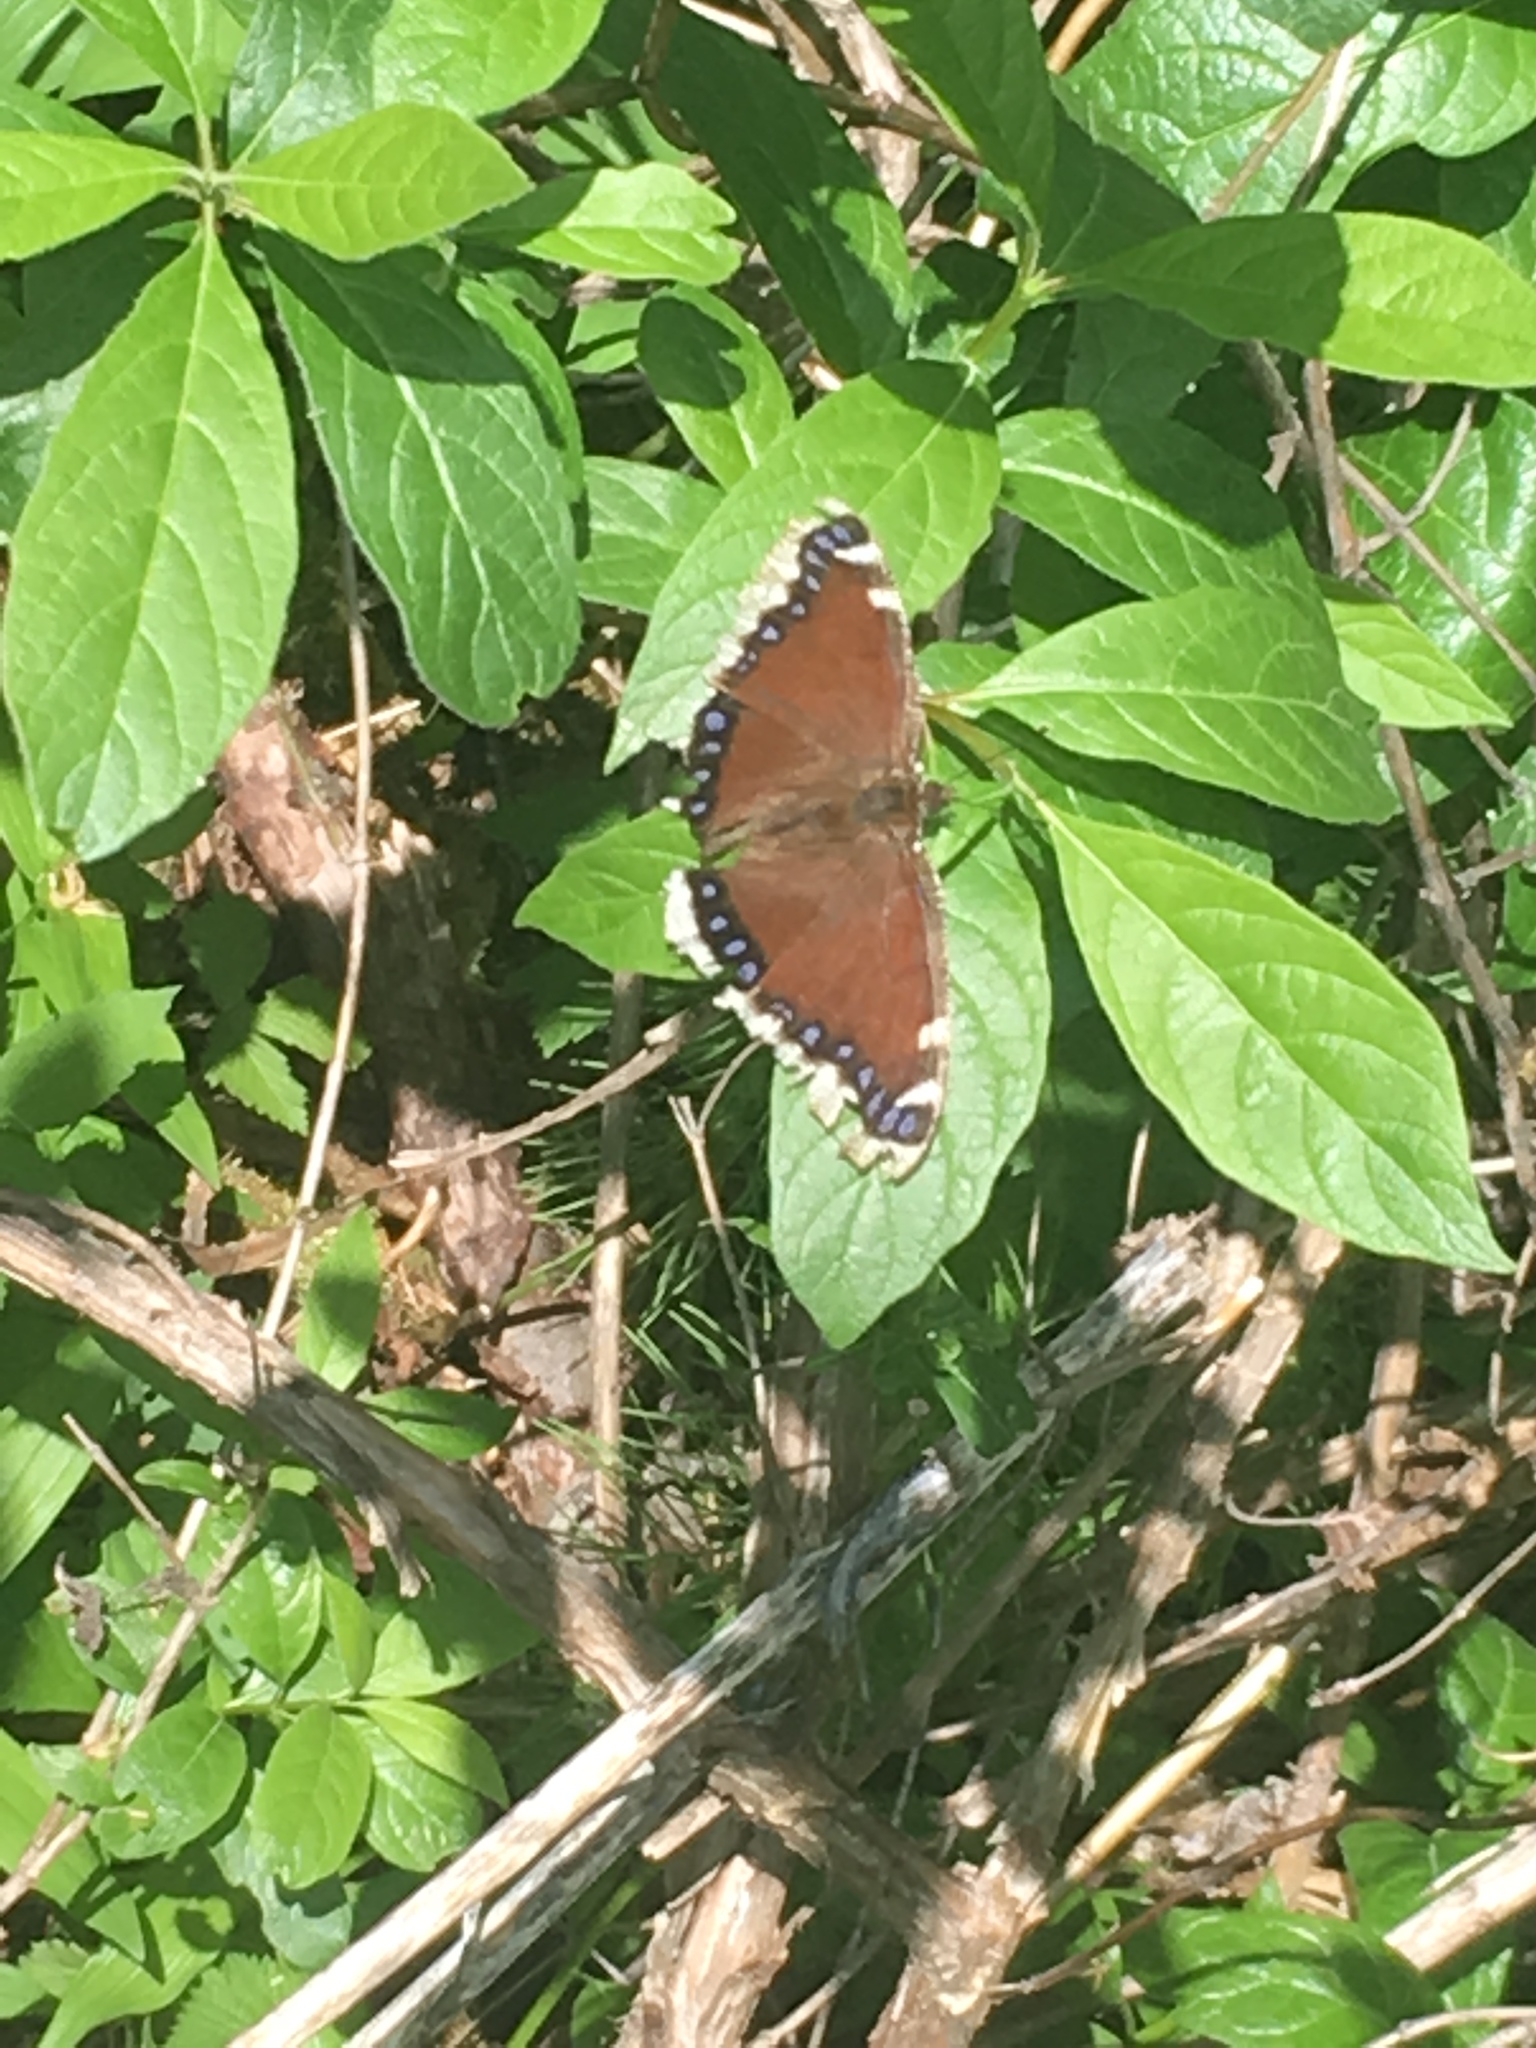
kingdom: Animalia
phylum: Arthropoda
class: Insecta
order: Lepidoptera
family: Nymphalidae
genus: Nymphalis
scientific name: Nymphalis antiopa
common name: Camberwell beauty
